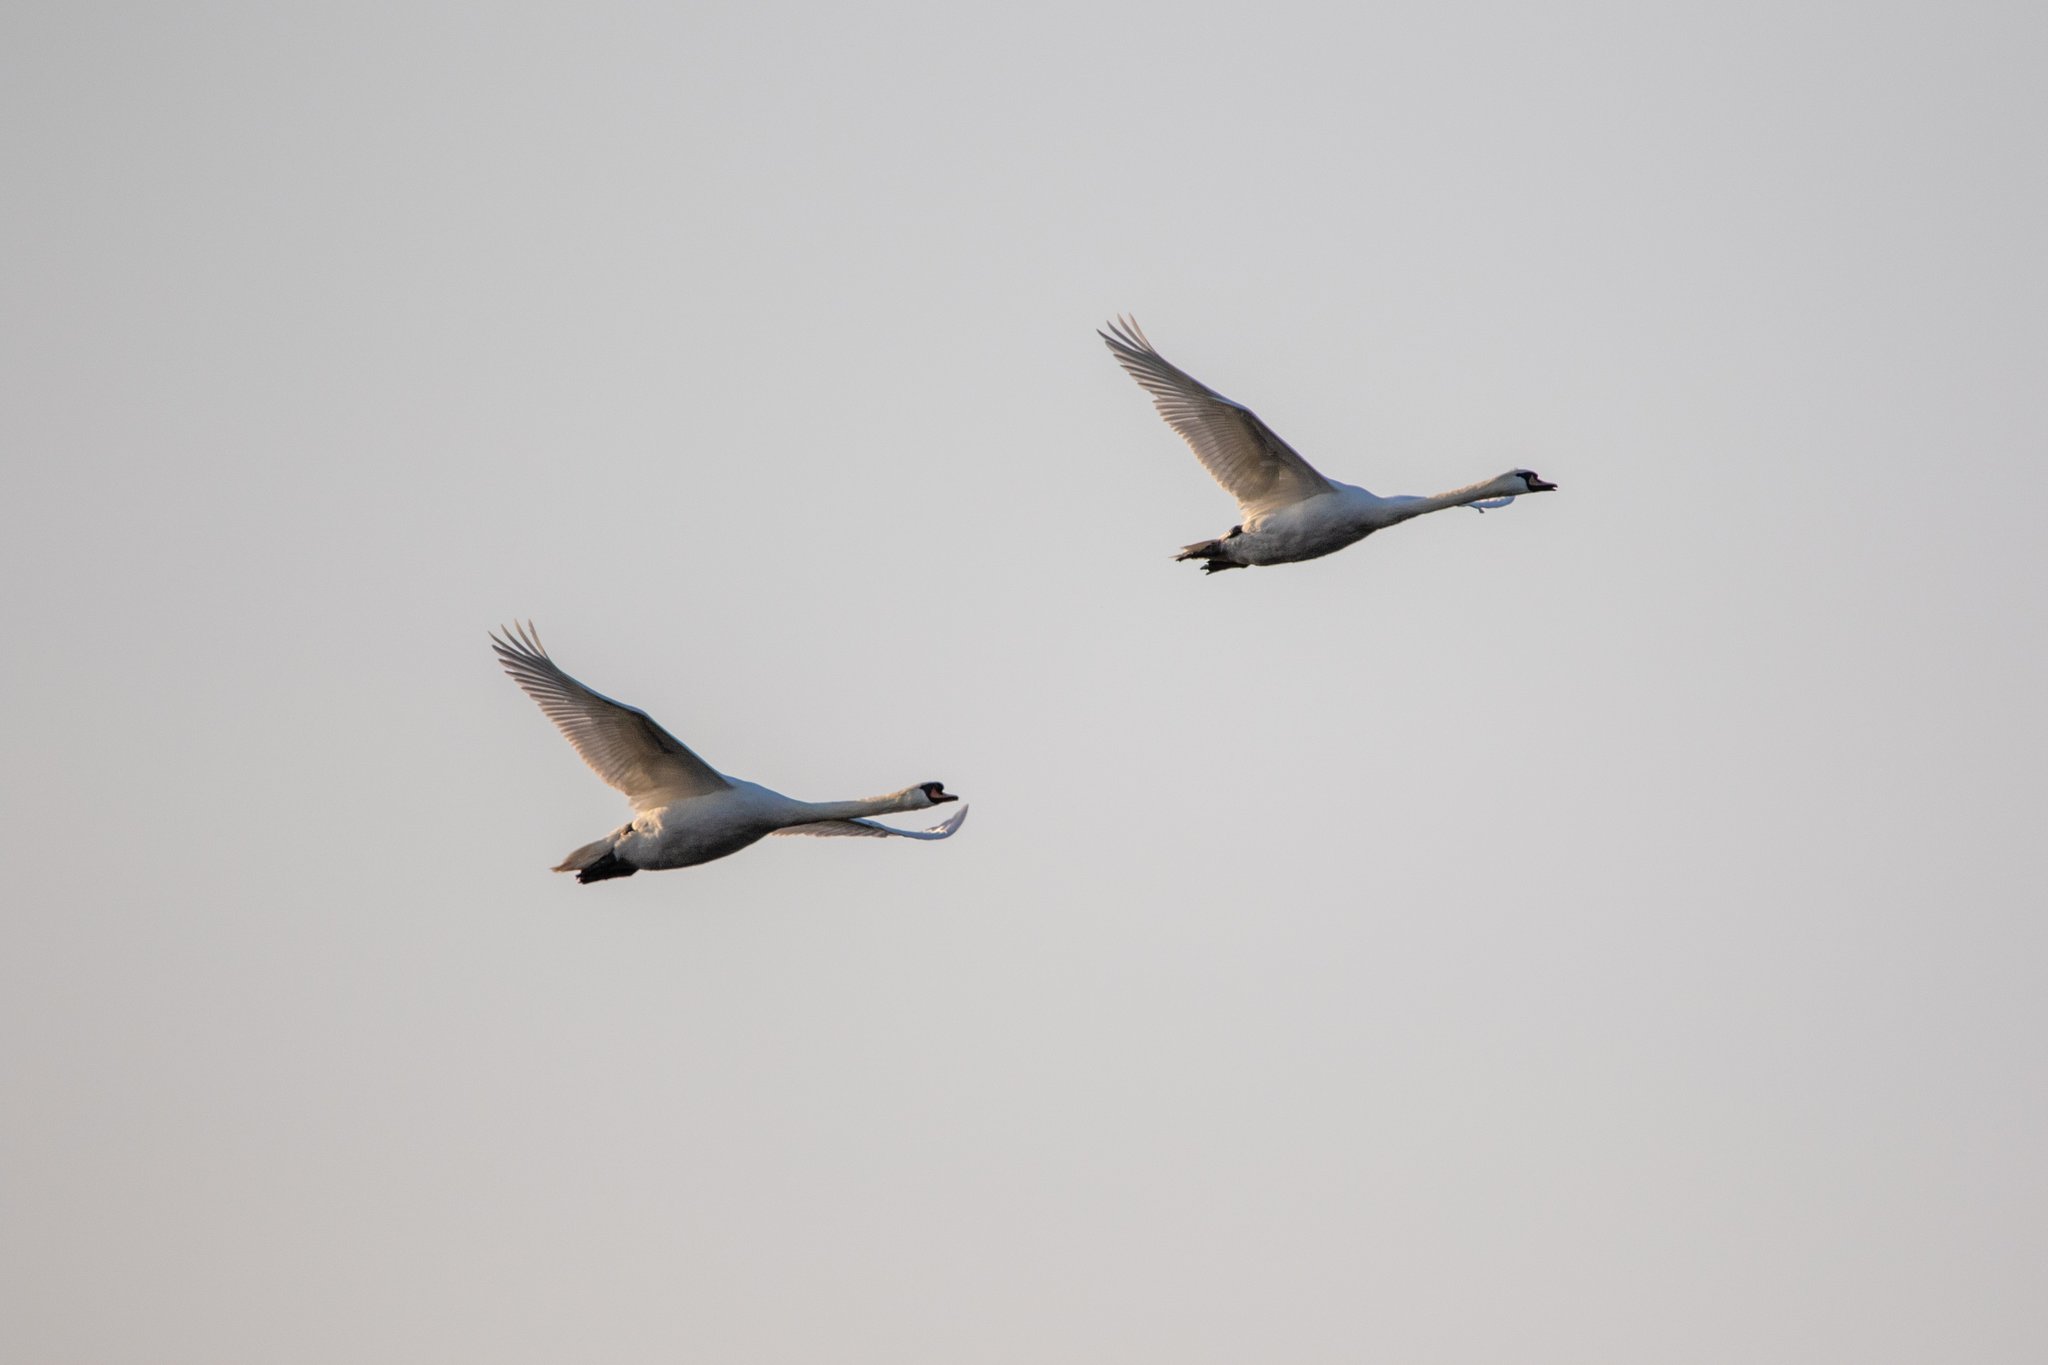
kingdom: Animalia
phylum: Chordata
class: Aves
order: Anseriformes
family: Anatidae
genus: Cygnus
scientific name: Cygnus olor
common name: Mute swan
